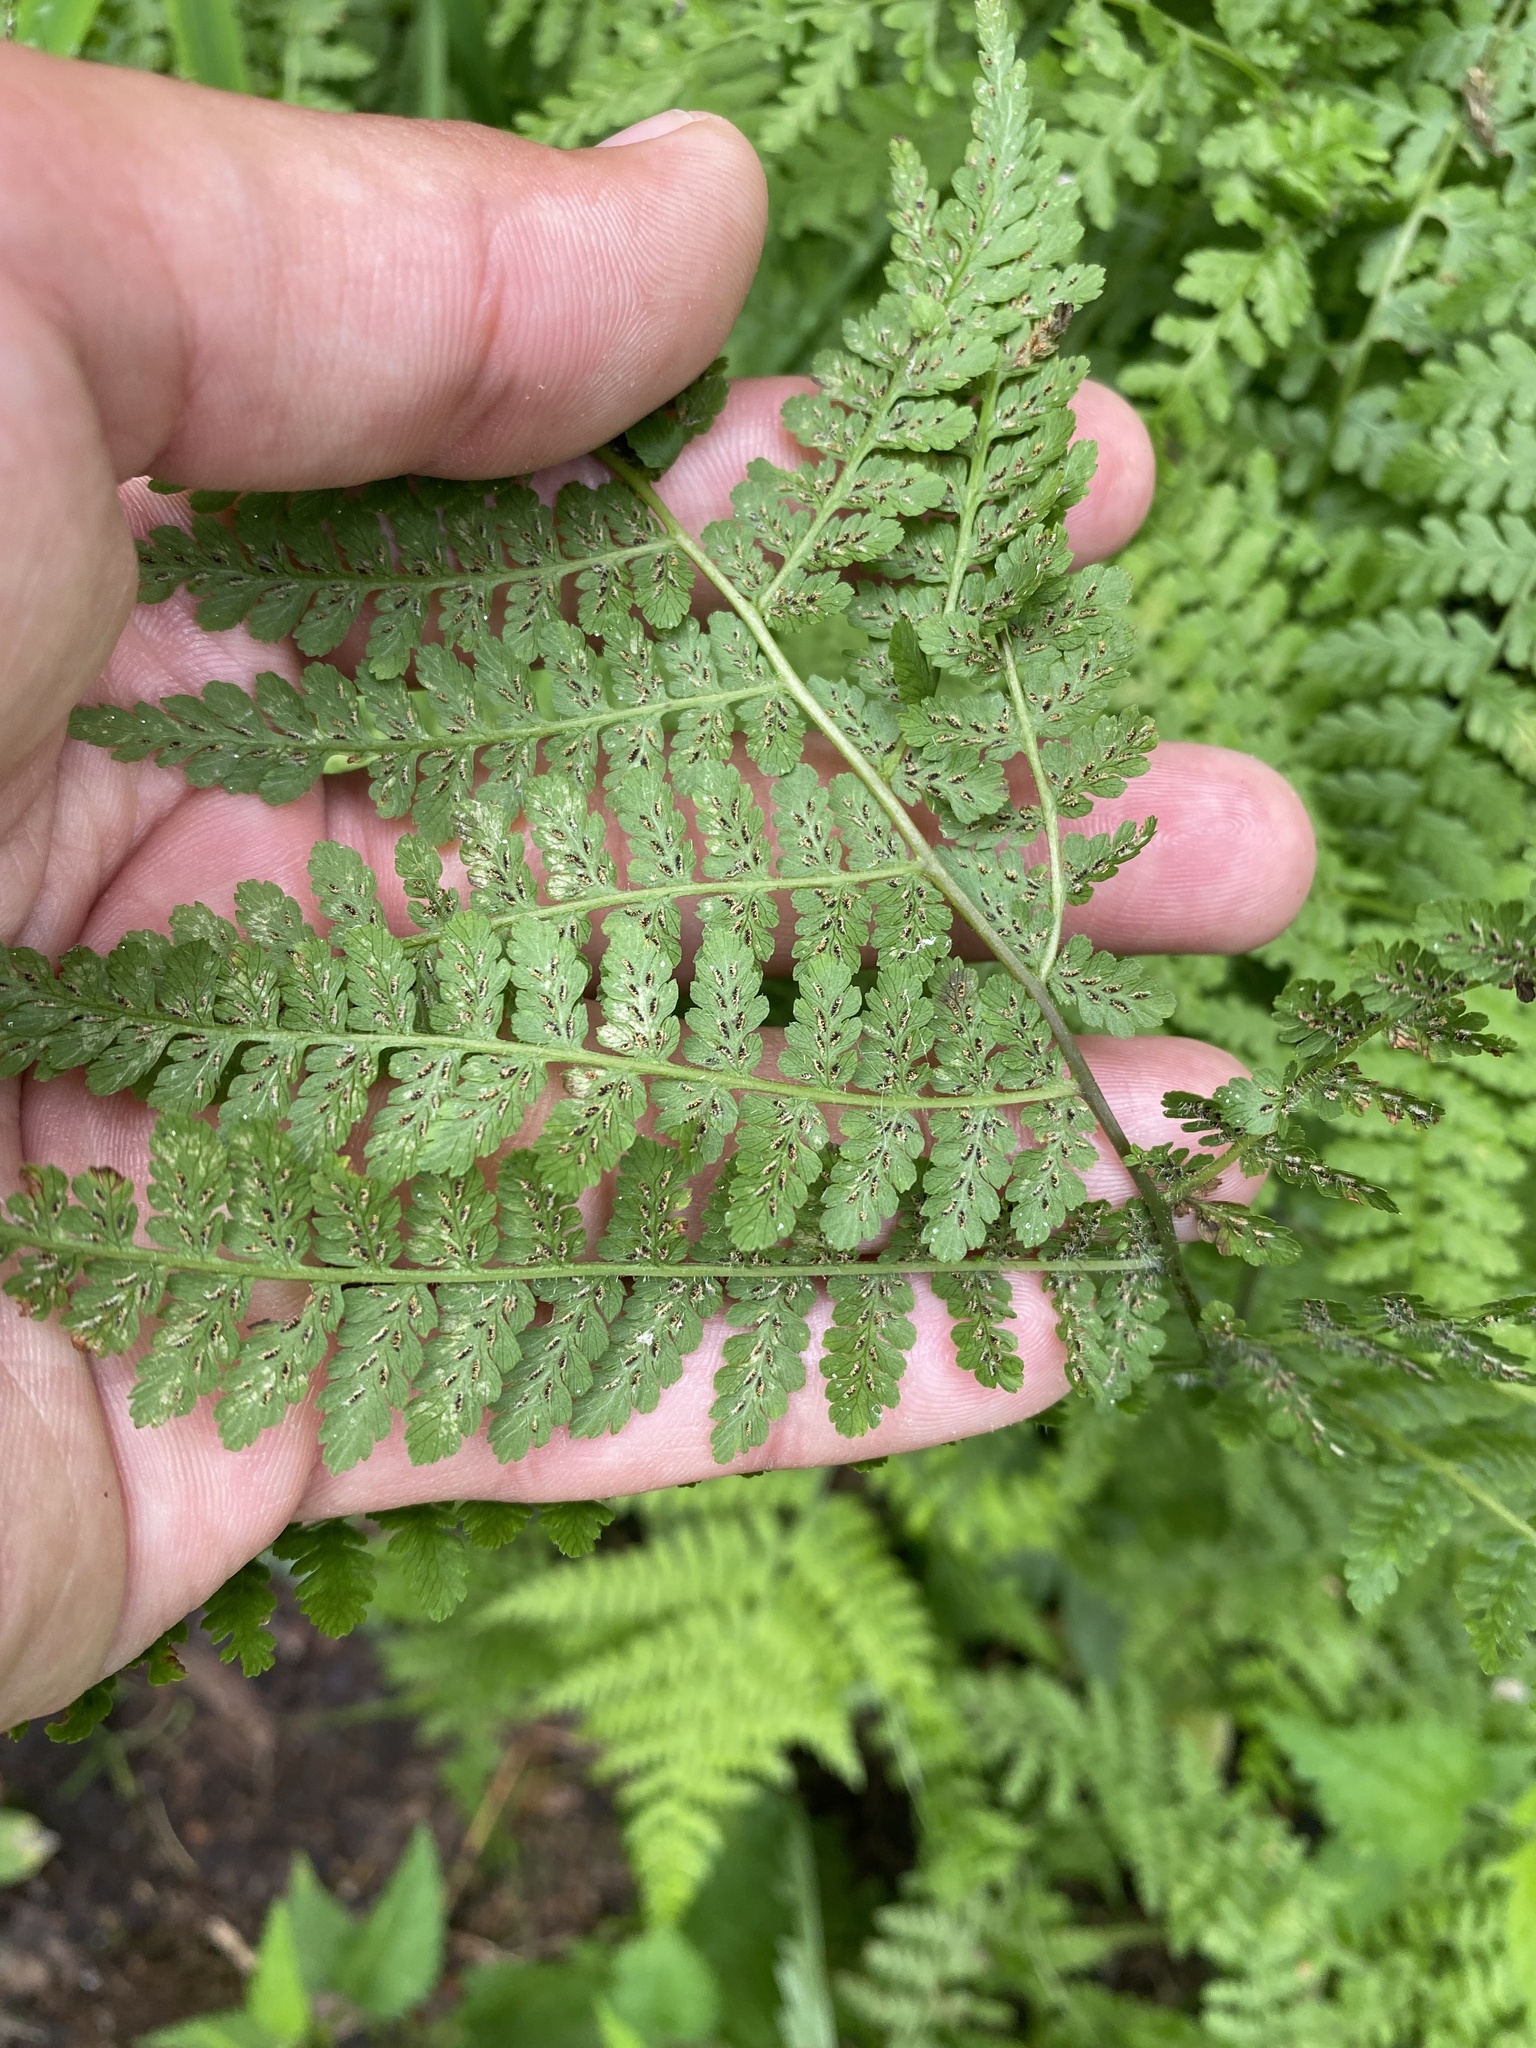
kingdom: Plantae
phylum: Tracheophyta
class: Polypodiopsida
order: Polypodiales
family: Athyriaceae
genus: Diplazium
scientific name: Diplazium sibiricum
